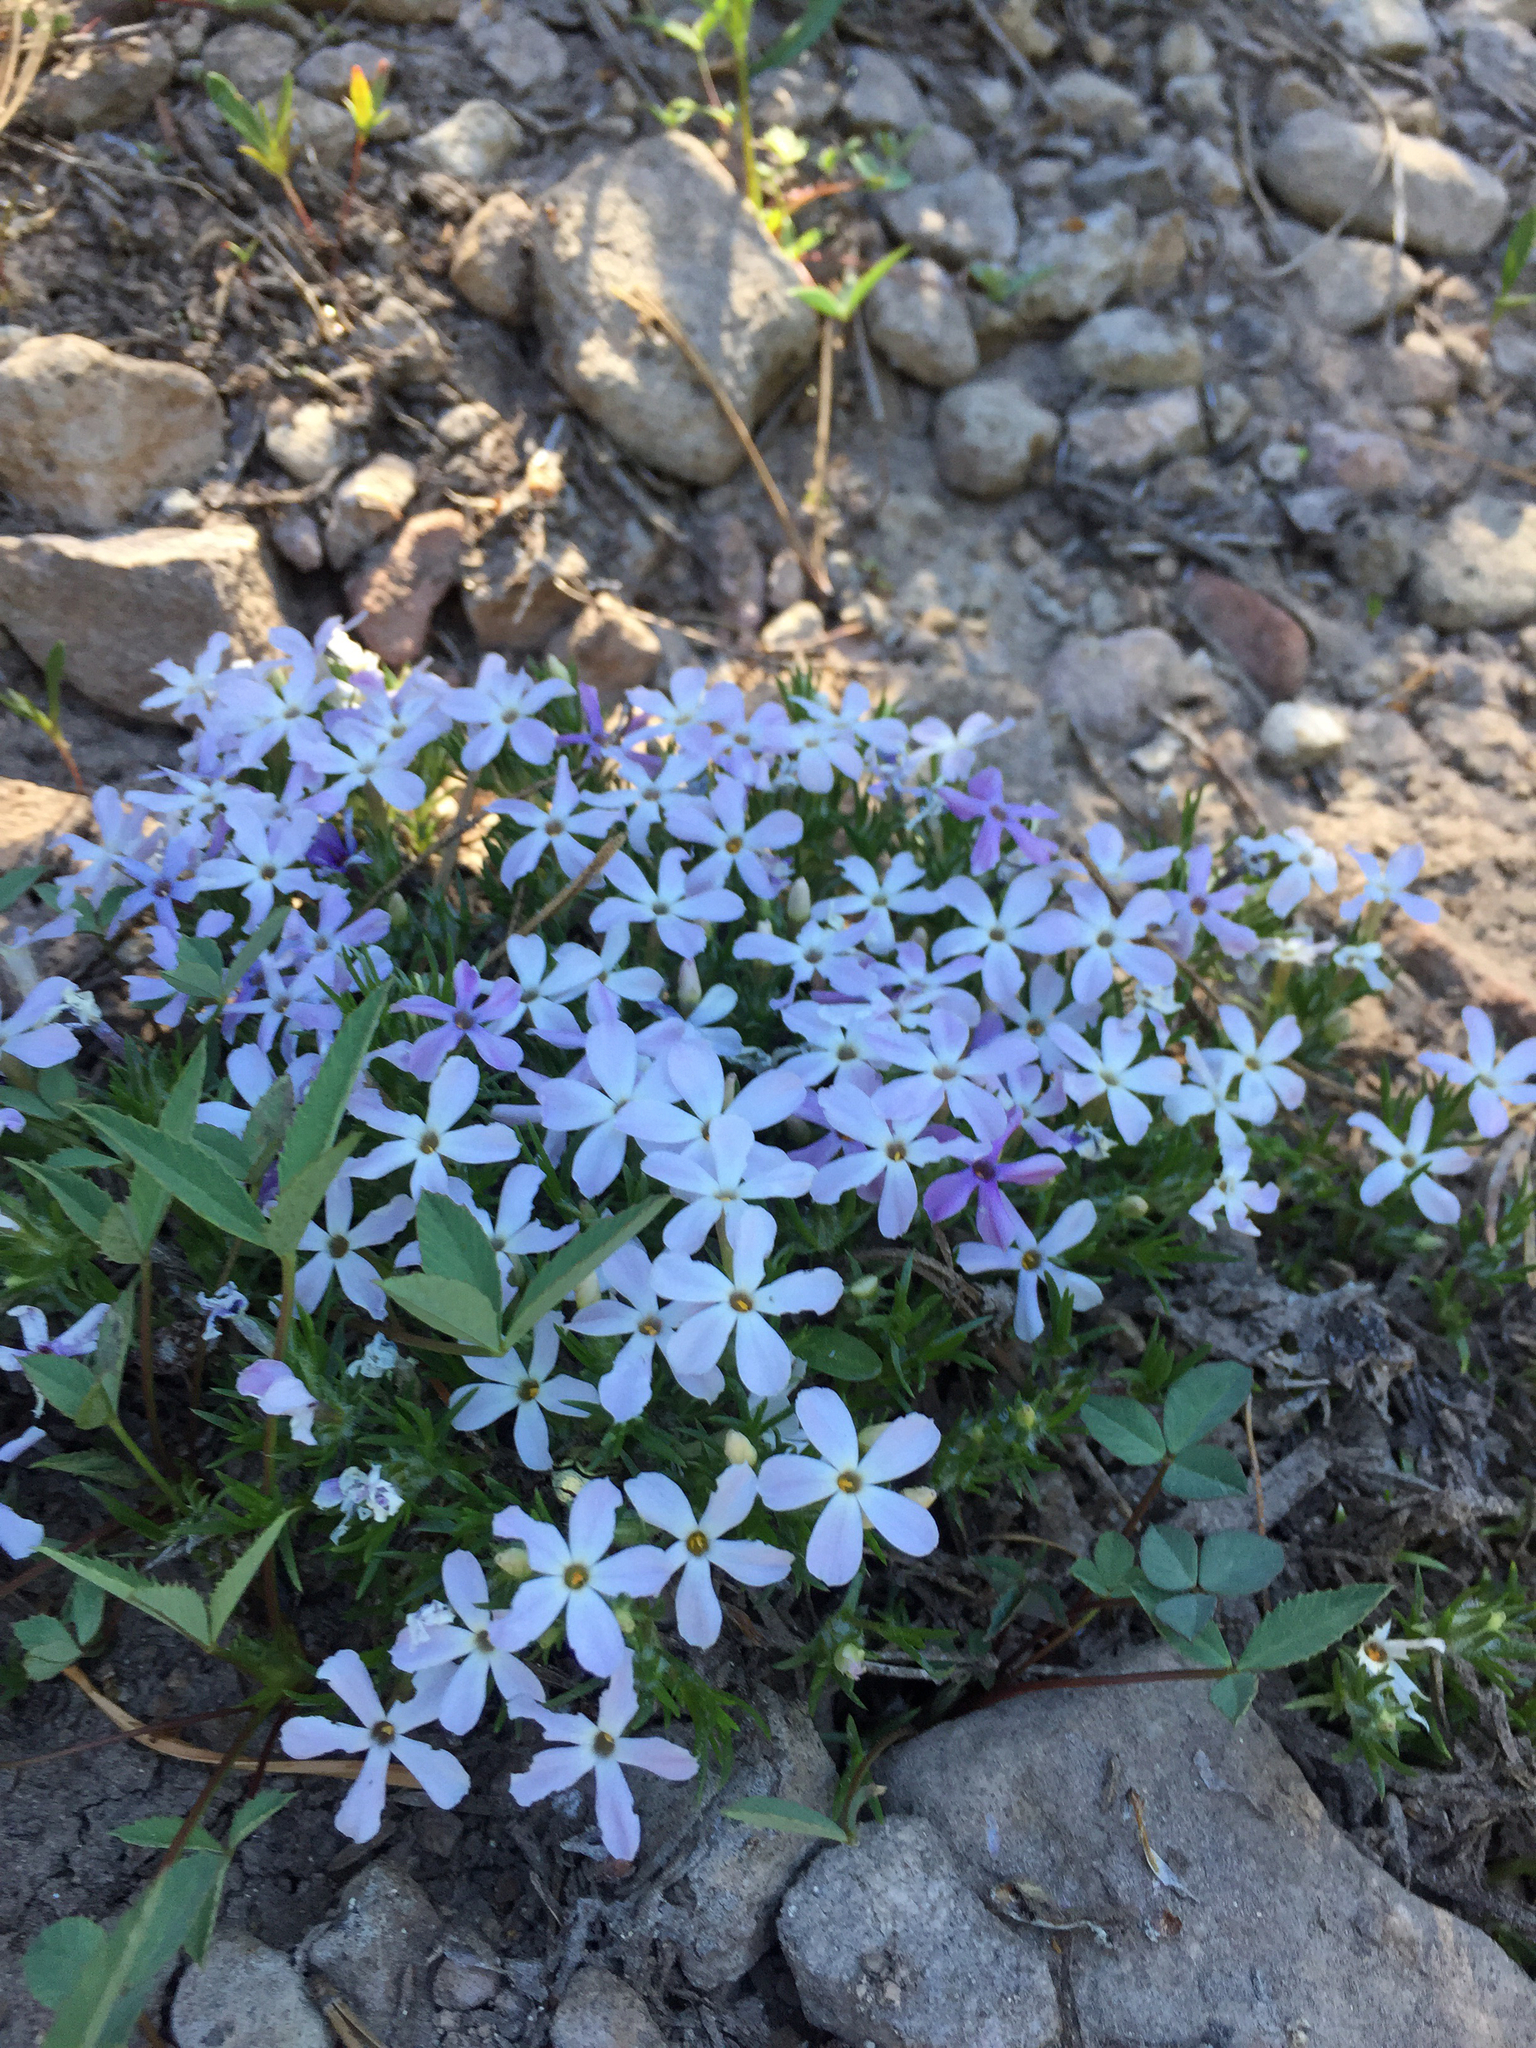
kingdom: Plantae
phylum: Tracheophyta
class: Magnoliopsida
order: Ericales
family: Polemoniaceae
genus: Phlox
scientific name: Phlox diffusa
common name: Mat phlox
